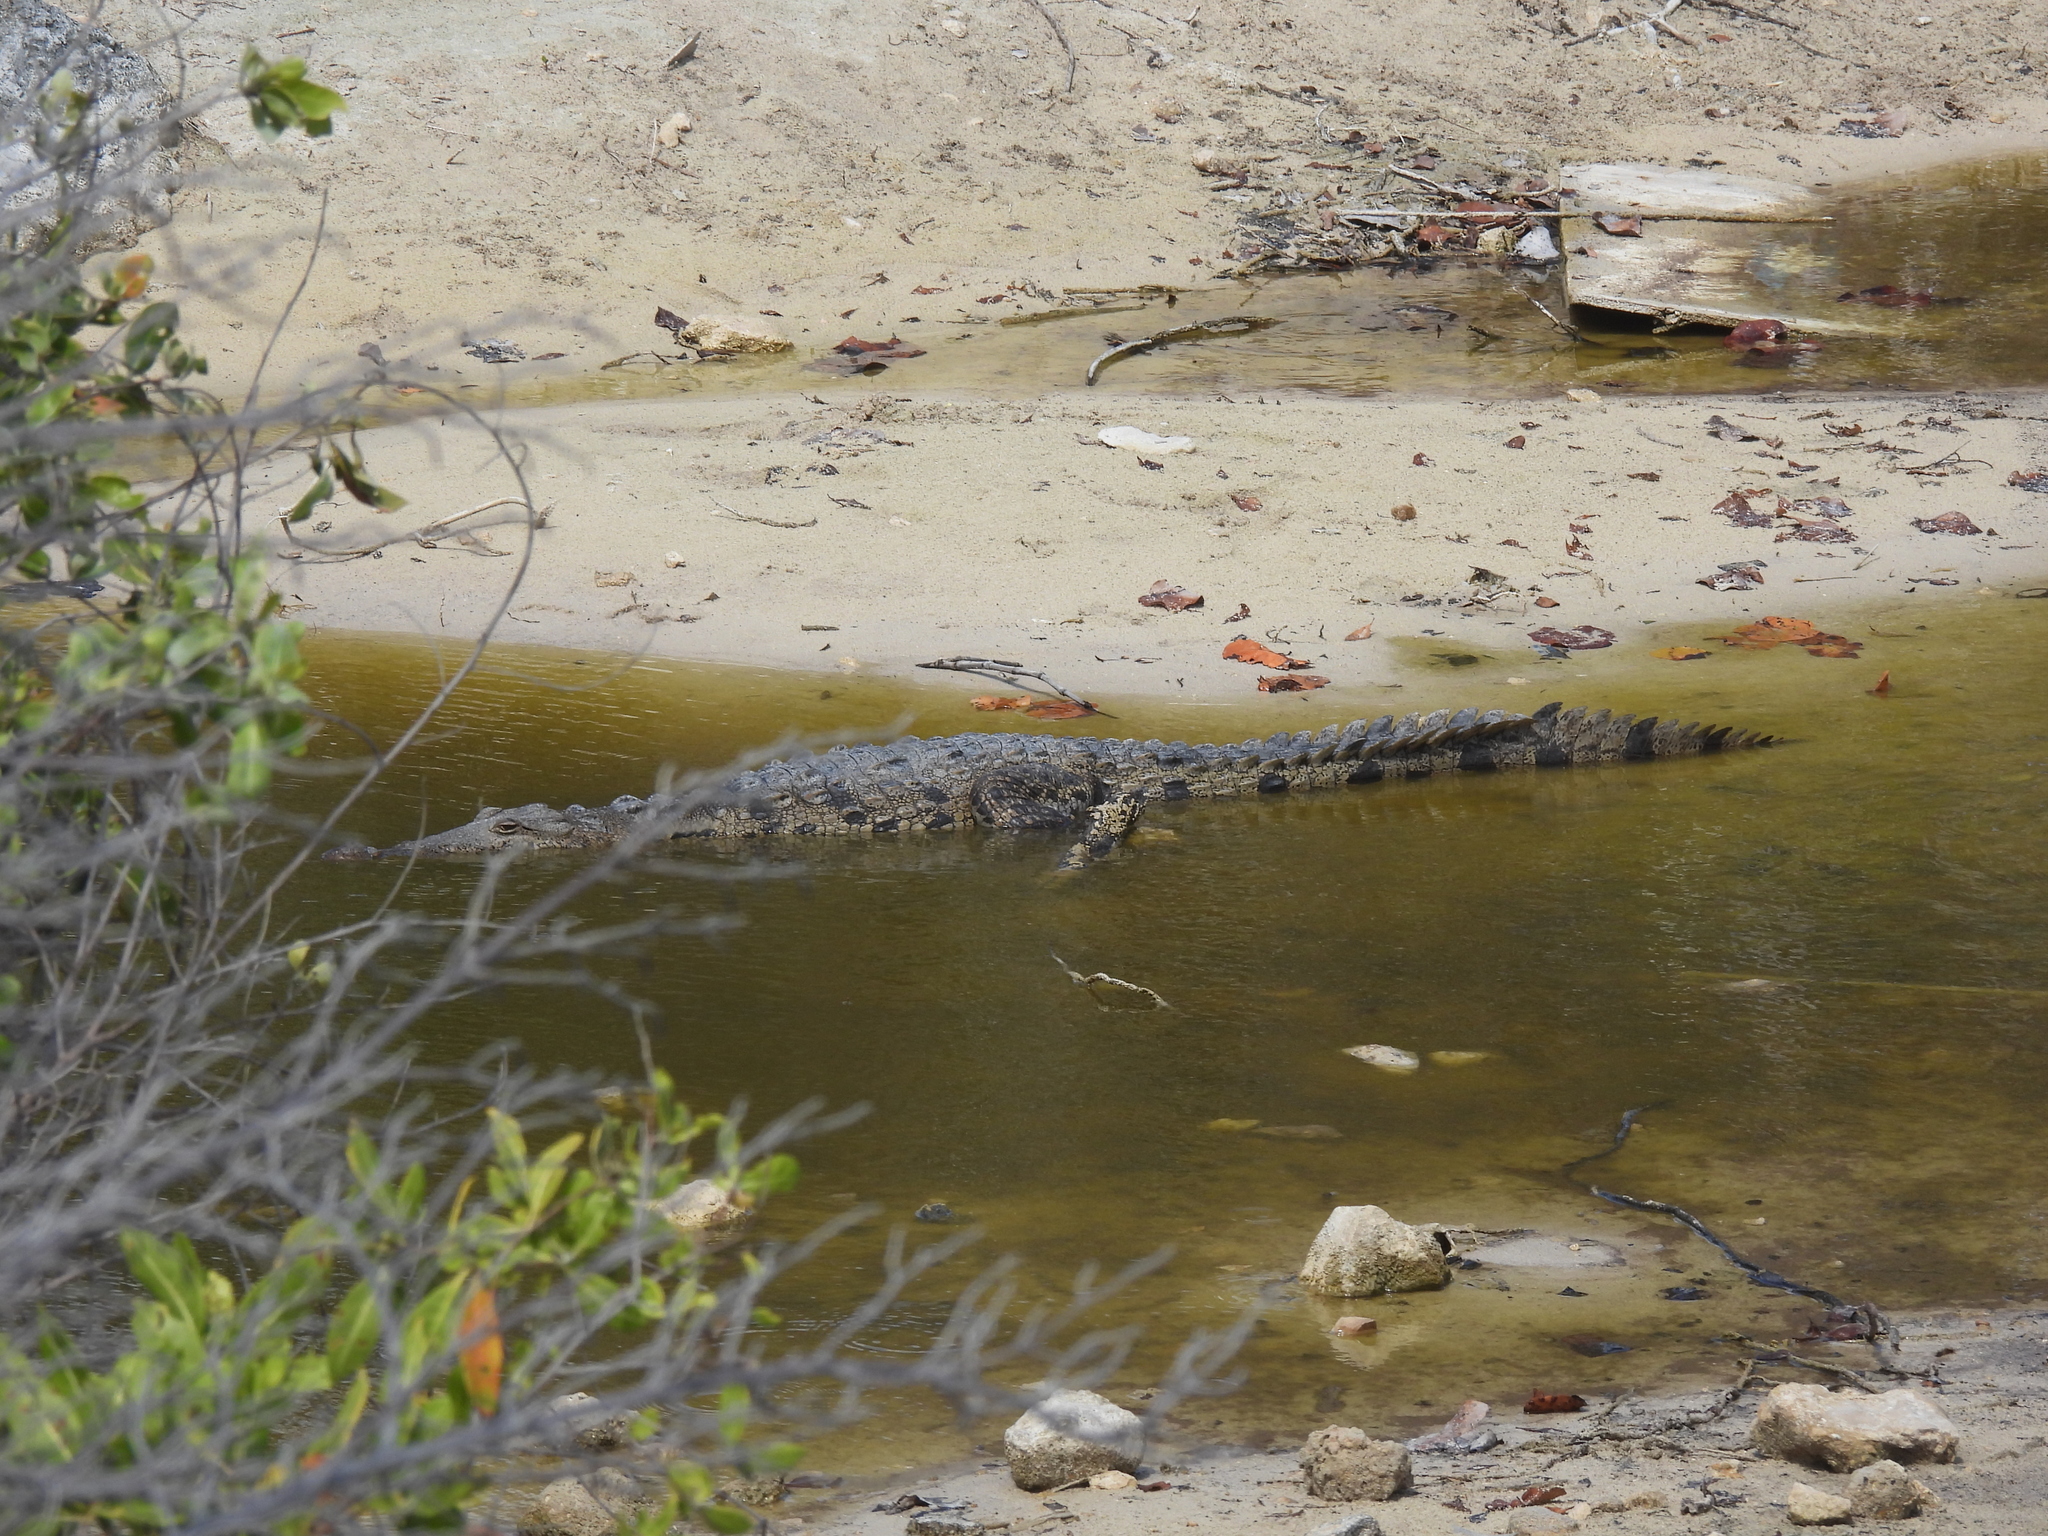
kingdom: Animalia
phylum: Chordata
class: Crocodylia
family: Crocodylidae
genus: Crocodylus
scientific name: Crocodylus acutus
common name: American crocodile
